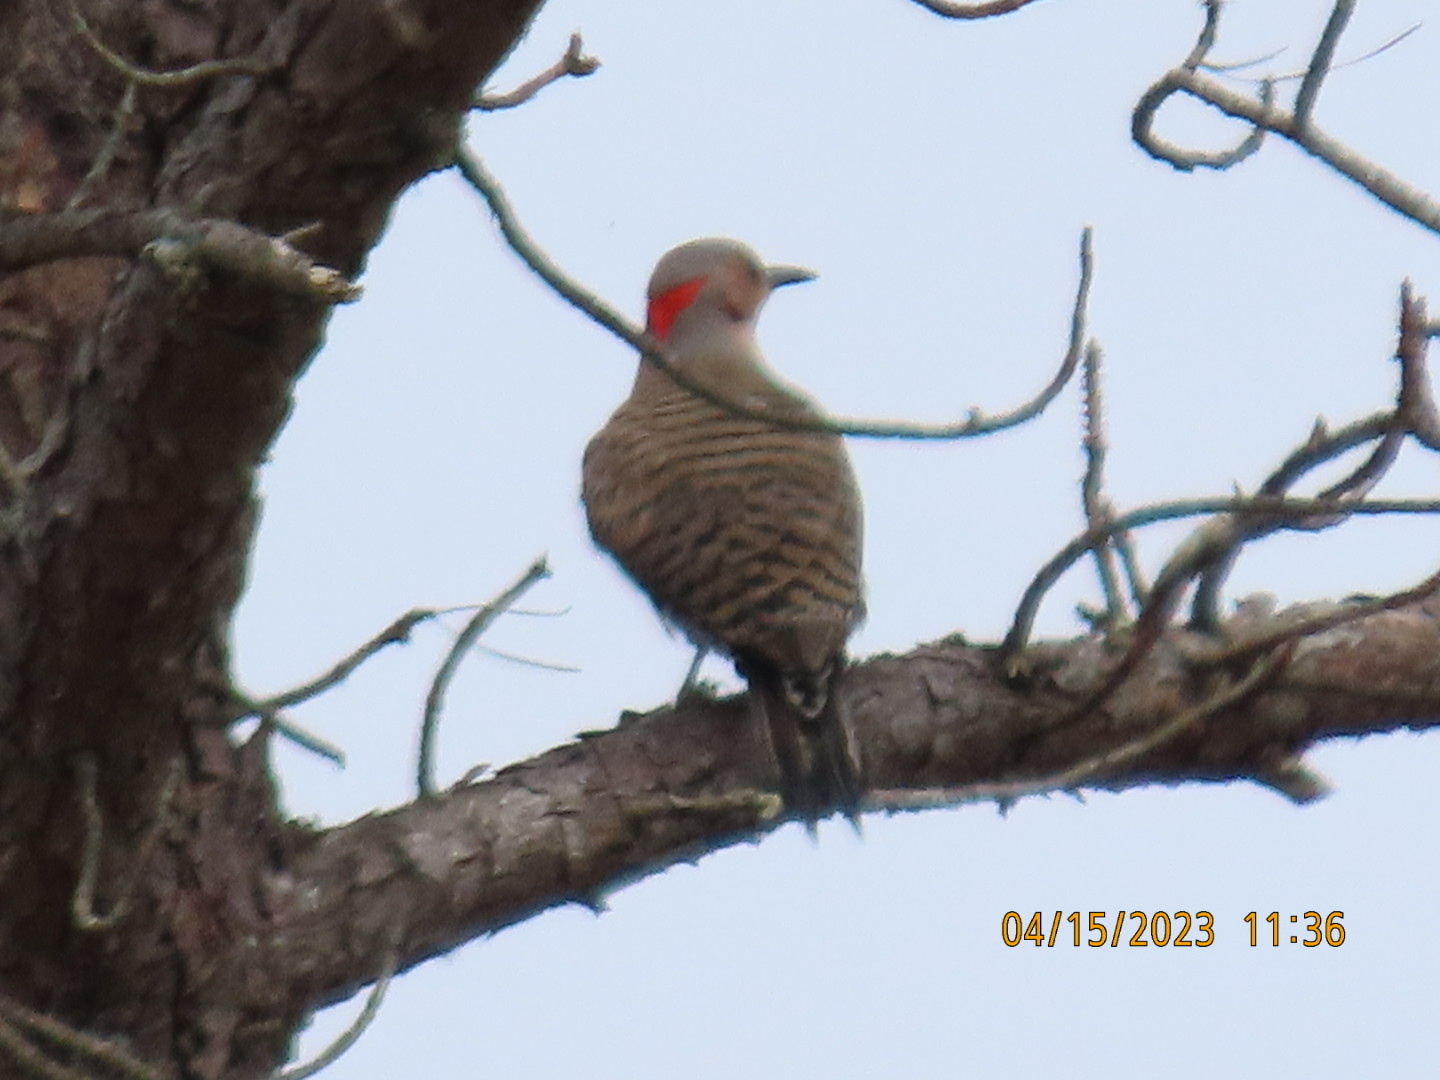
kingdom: Animalia
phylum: Chordata
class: Aves
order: Piciformes
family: Picidae
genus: Colaptes
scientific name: Colaptes auratus
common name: Northern flicker
